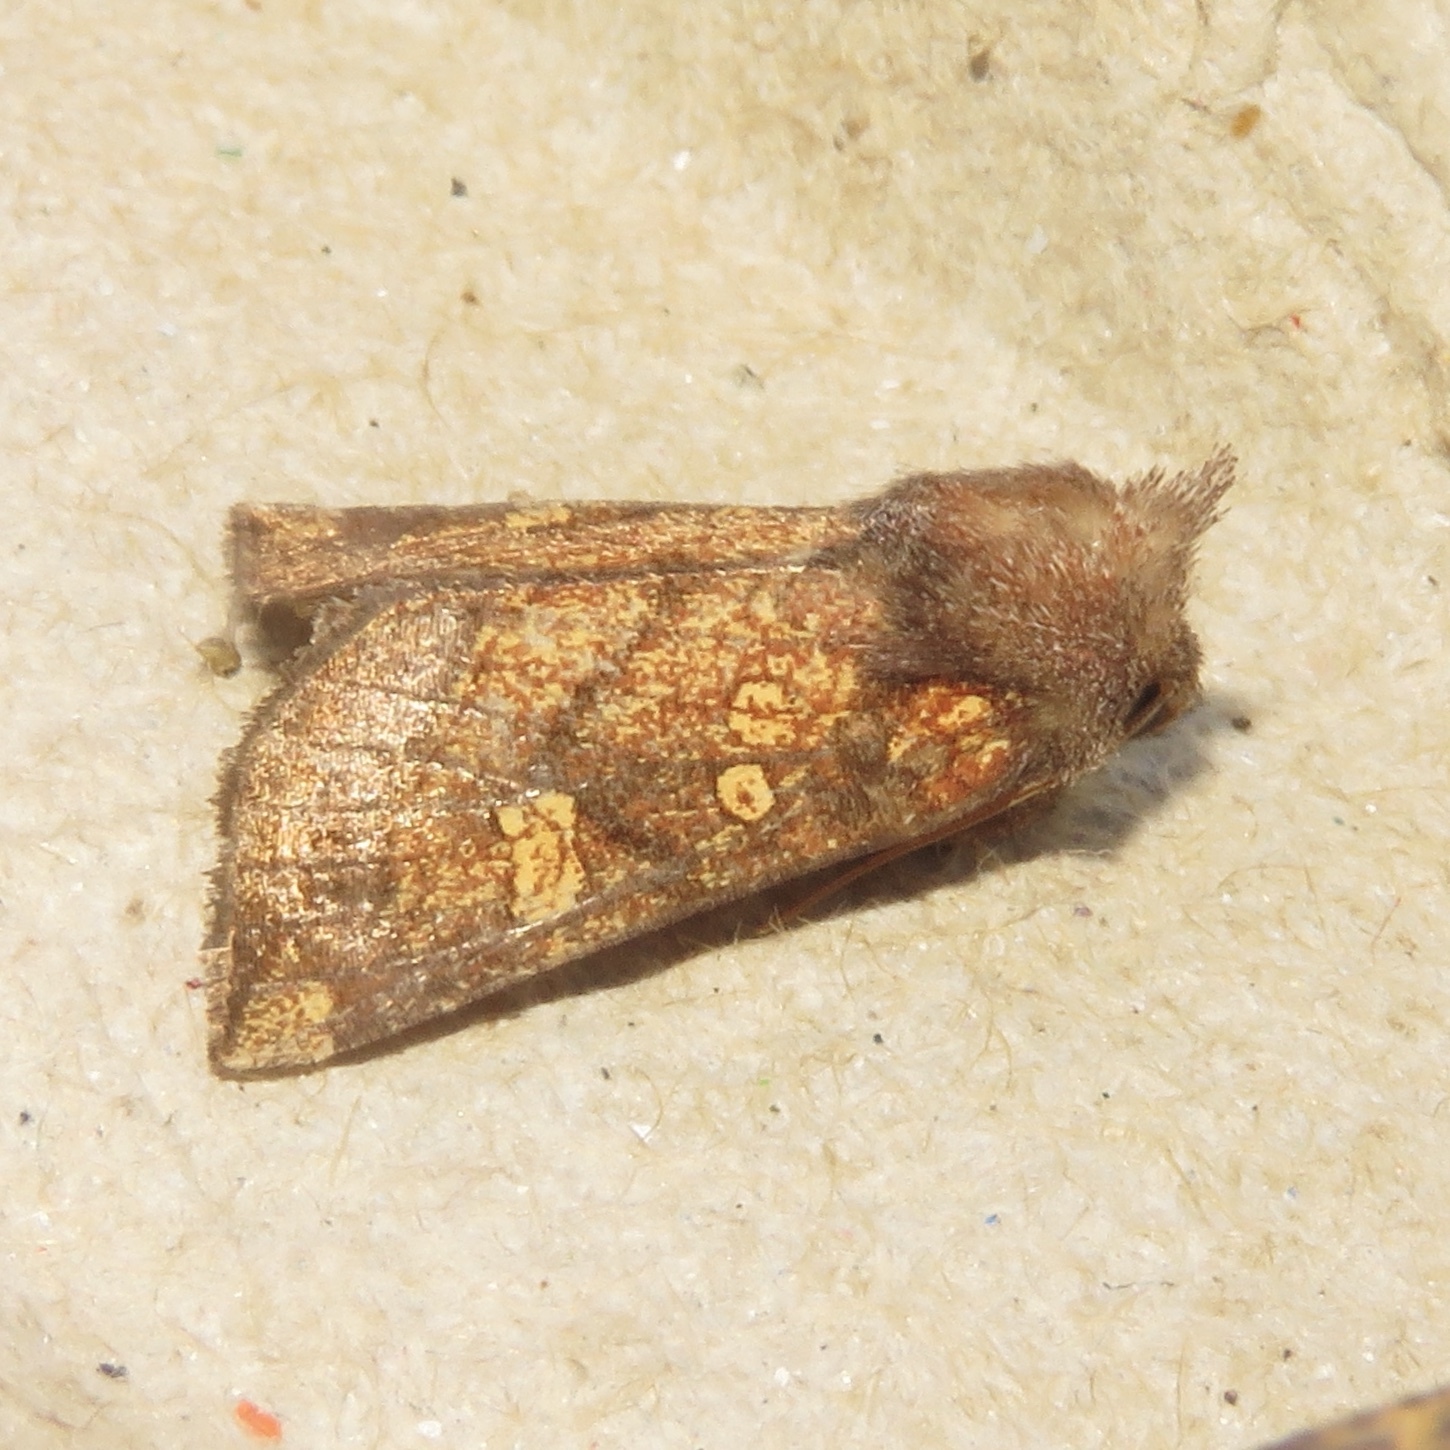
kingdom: Animalia
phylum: Arthropoda
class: Insecta
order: Lepidoptera
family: Noctuidae
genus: Papaipema
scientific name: Papaipema impecuniosa
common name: Aster borer moth
